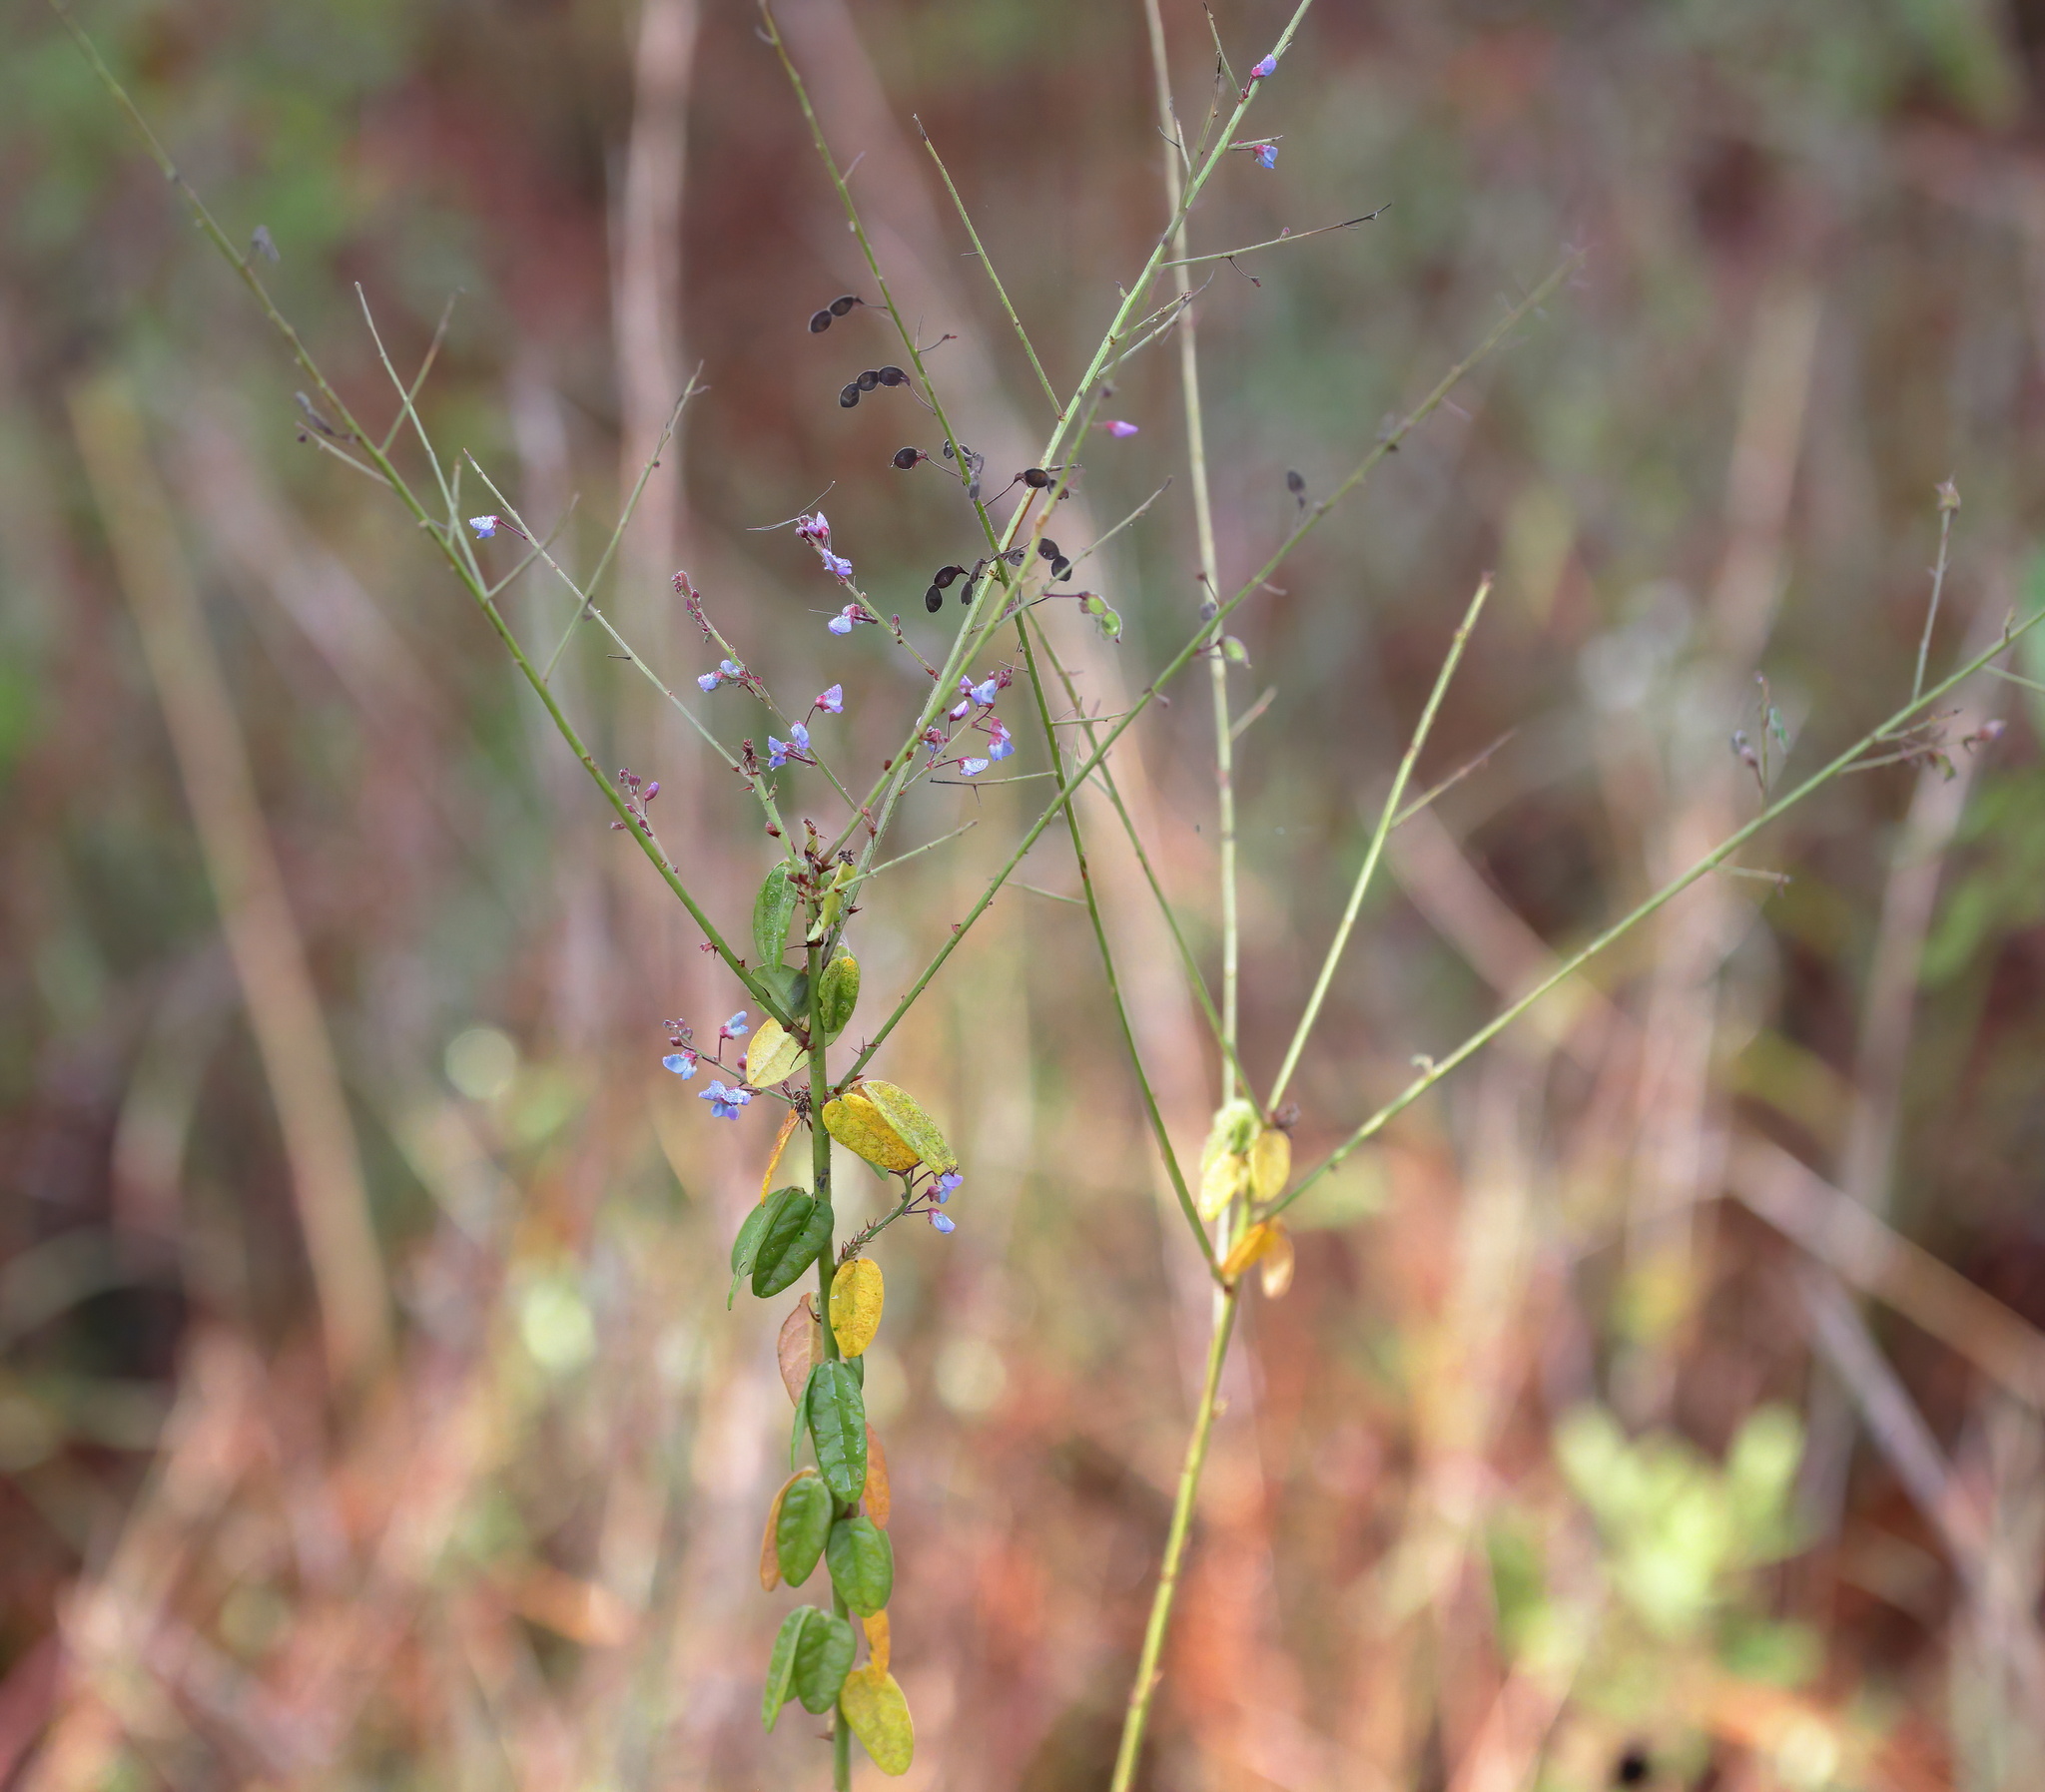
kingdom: Plantae
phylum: Tracheophyta
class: Magnoliopsida
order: Fabales
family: Fabaceae
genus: Desmodium
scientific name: Desmodium ciliare
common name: Hairy small-leaf ticktrefoil
